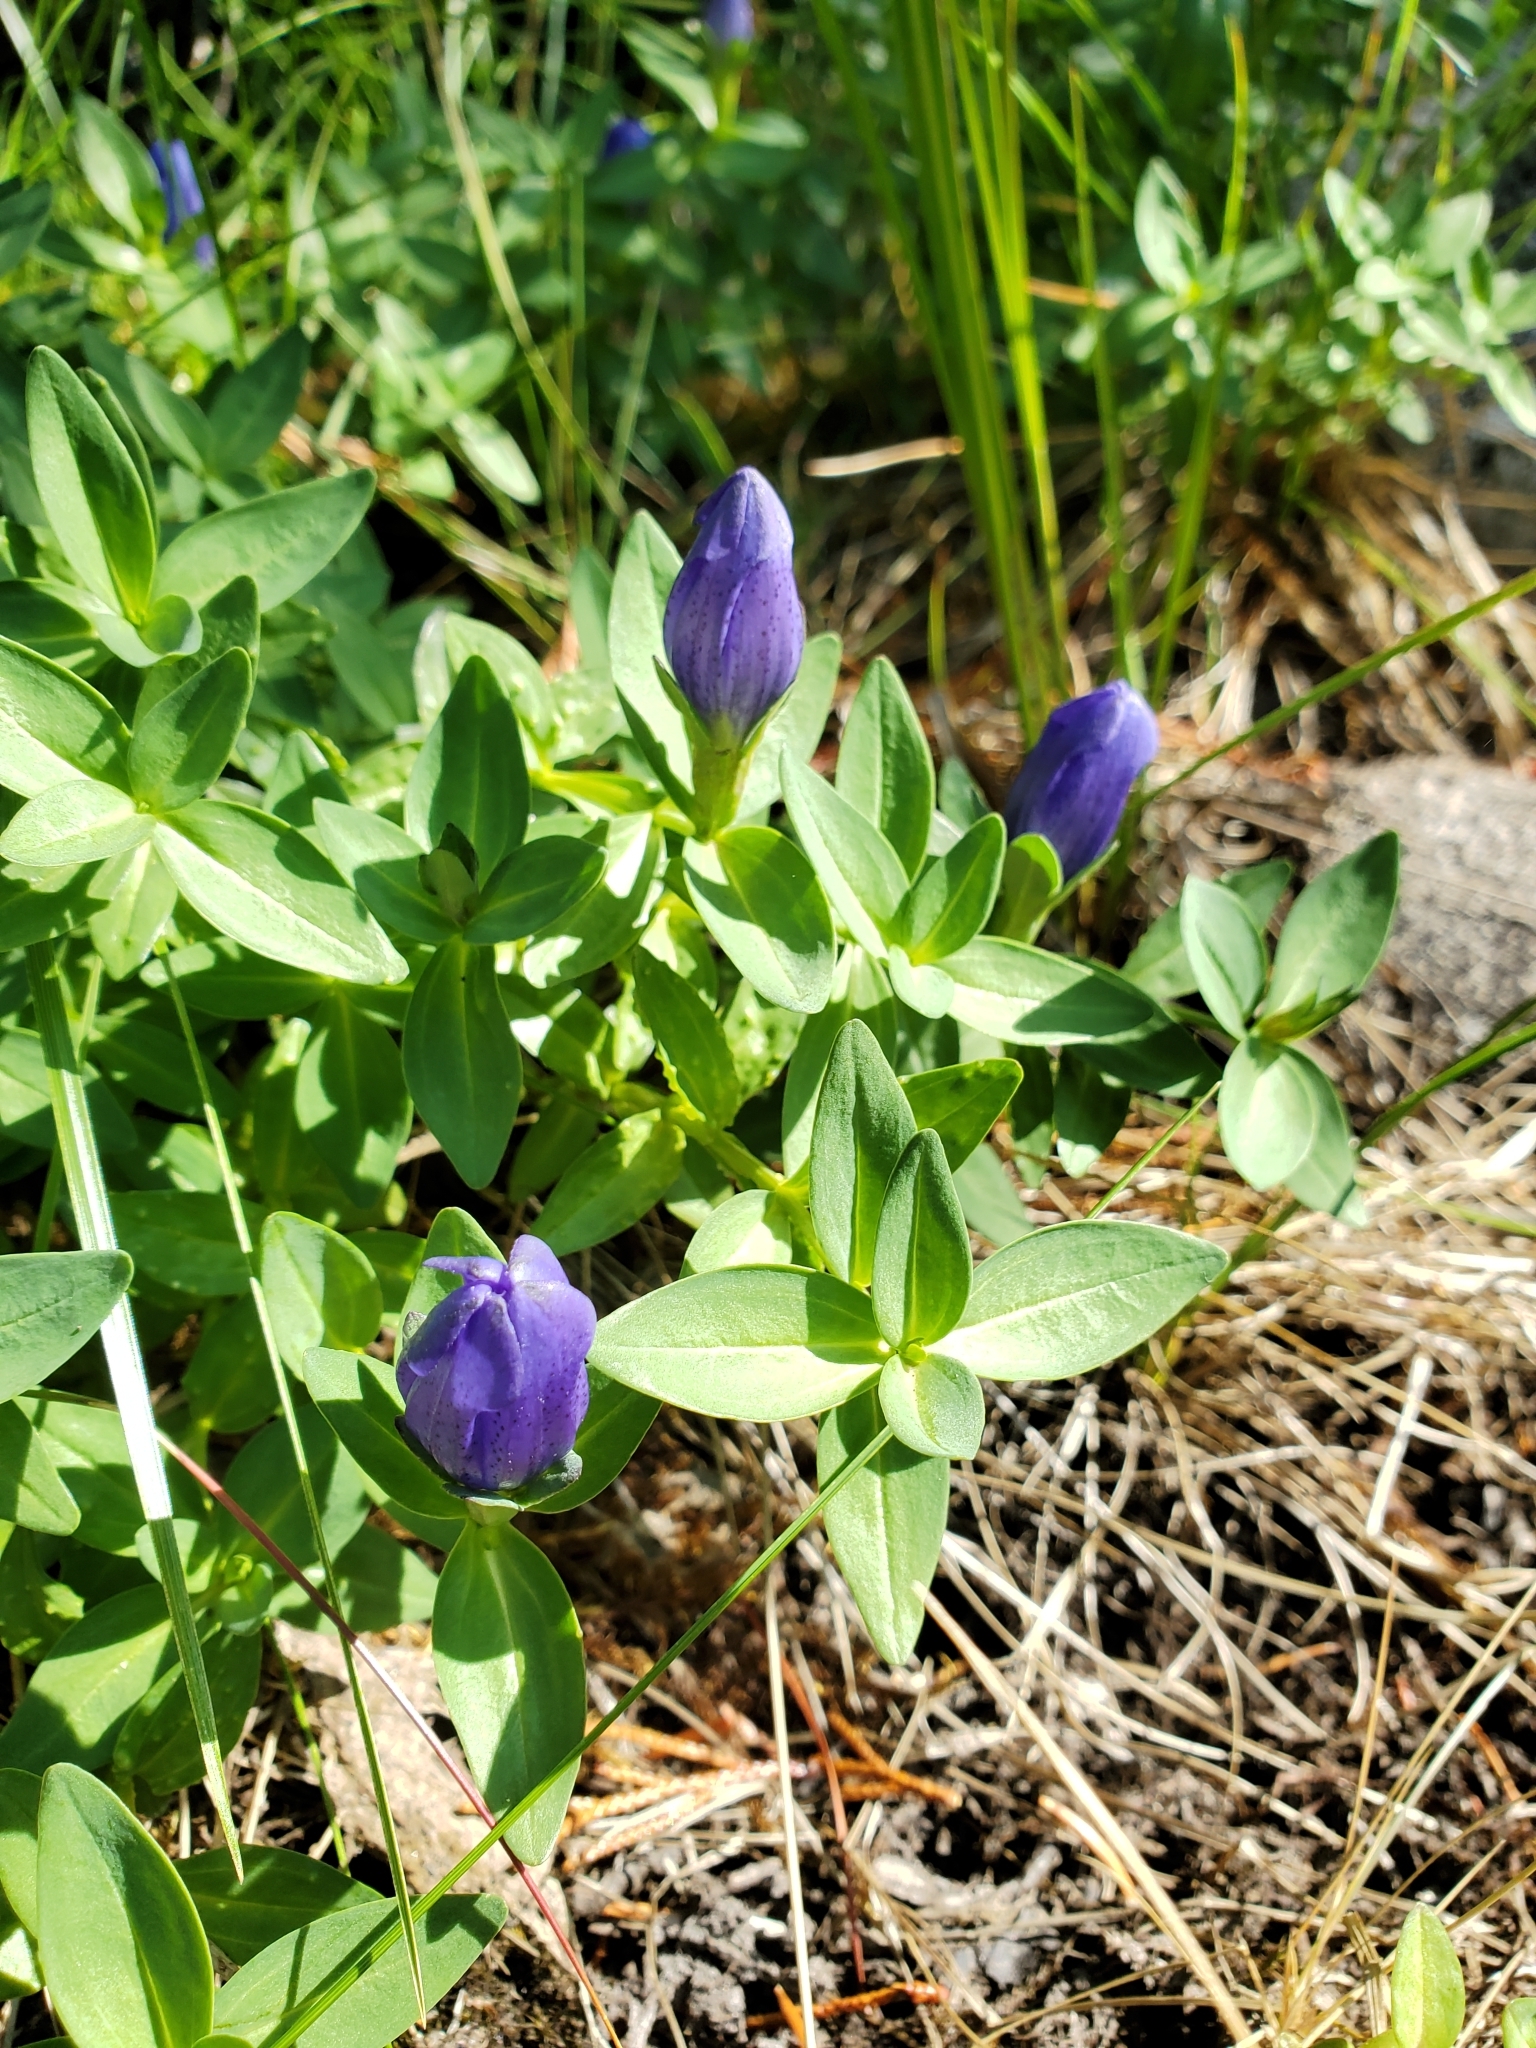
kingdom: Plantae
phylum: Tracheophyta
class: Magnoliopsida
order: Gentianales
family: Gentianaceae
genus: Gentiana
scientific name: Gentiana sceptrum
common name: Pacific gentian
